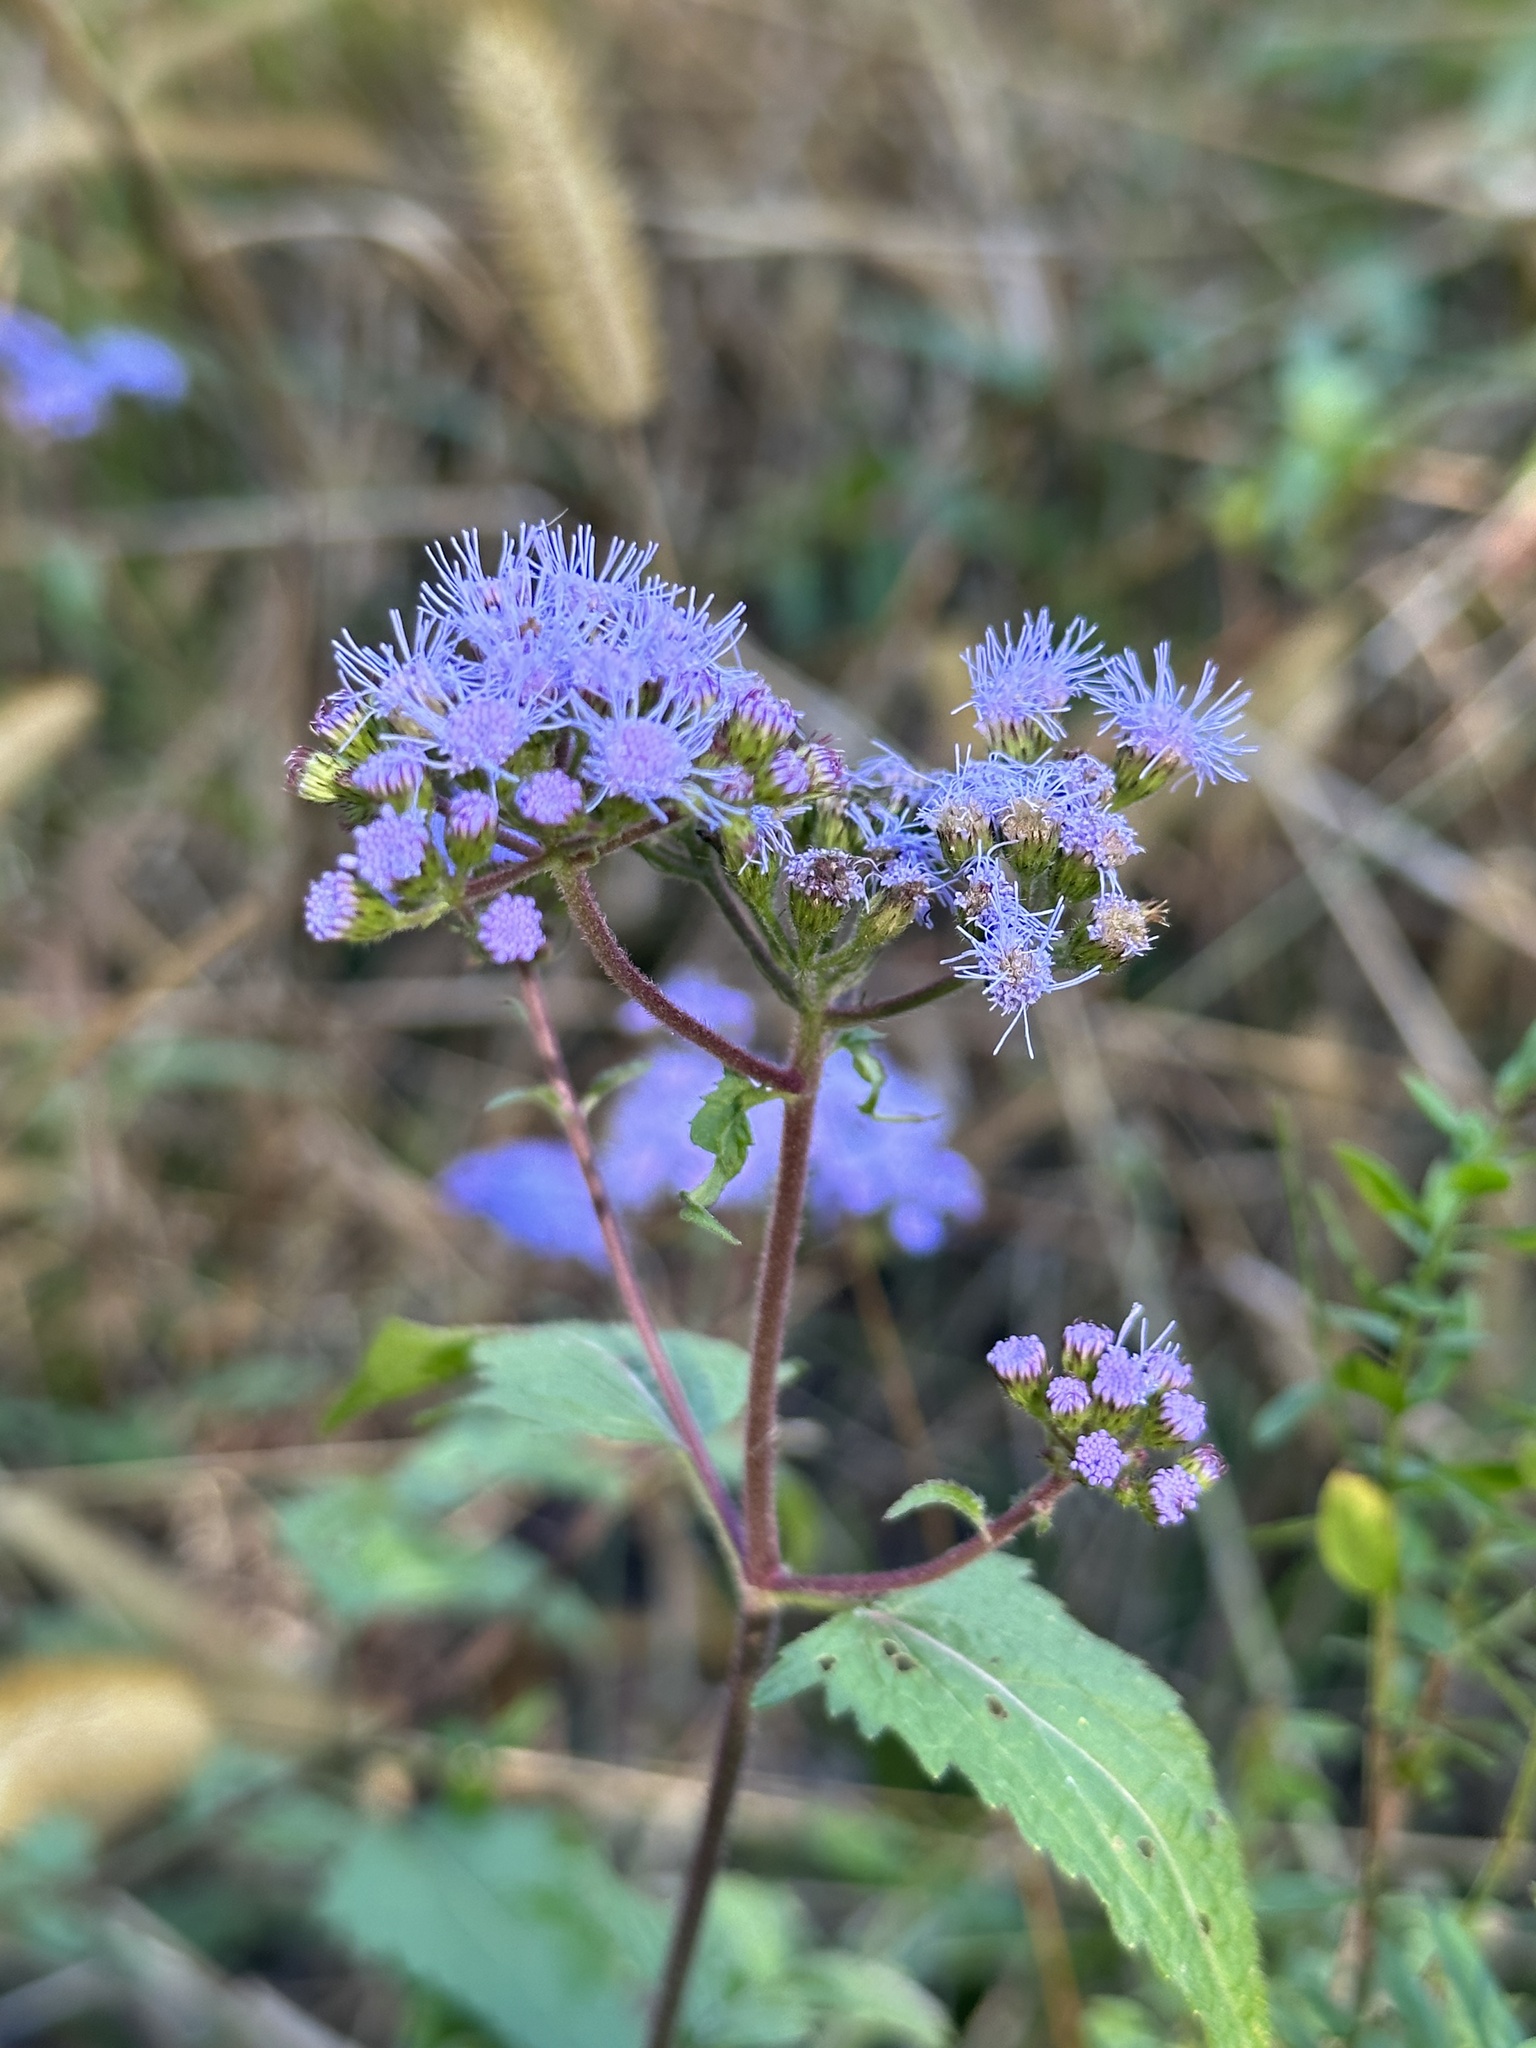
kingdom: Plantae
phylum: Tracheophyta
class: Magnoliopsida
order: Asterales
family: Asteraceae
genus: Conoclinium
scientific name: Conoclinium coelestinum
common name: Blue mistflower
